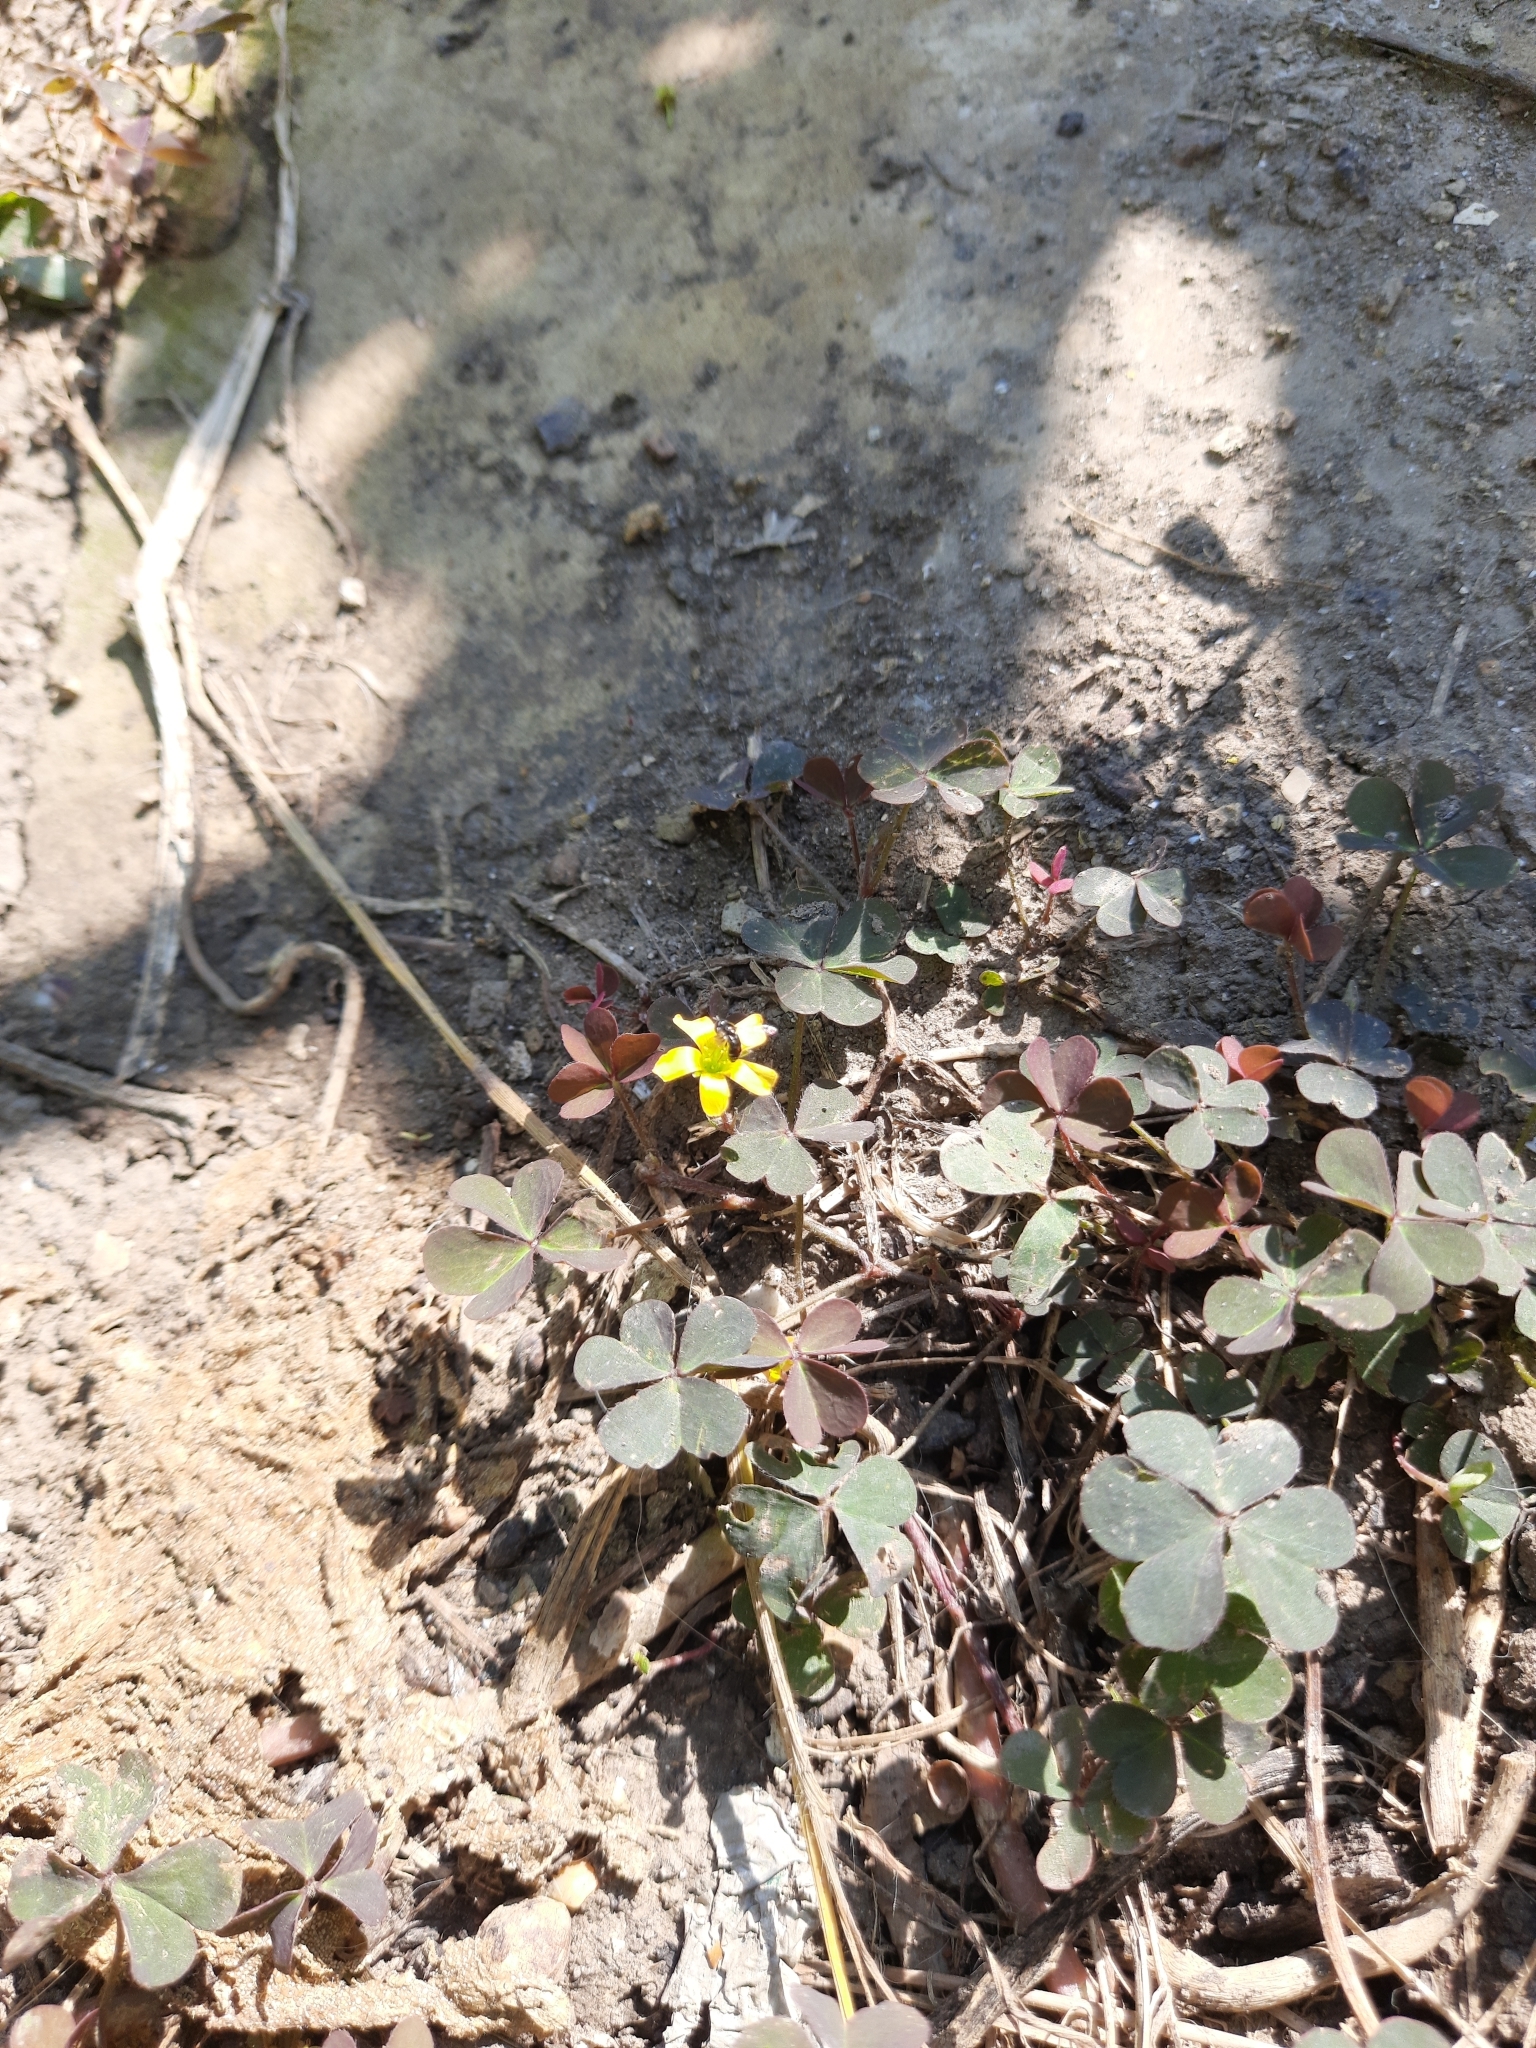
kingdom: Plantae
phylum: Tracheophyta
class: Magnoliopsida
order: Oxalidales
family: Oxalidaceae
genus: Oxalis
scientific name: Oxalis corniculata
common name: Procumbent yellow-sorrel
